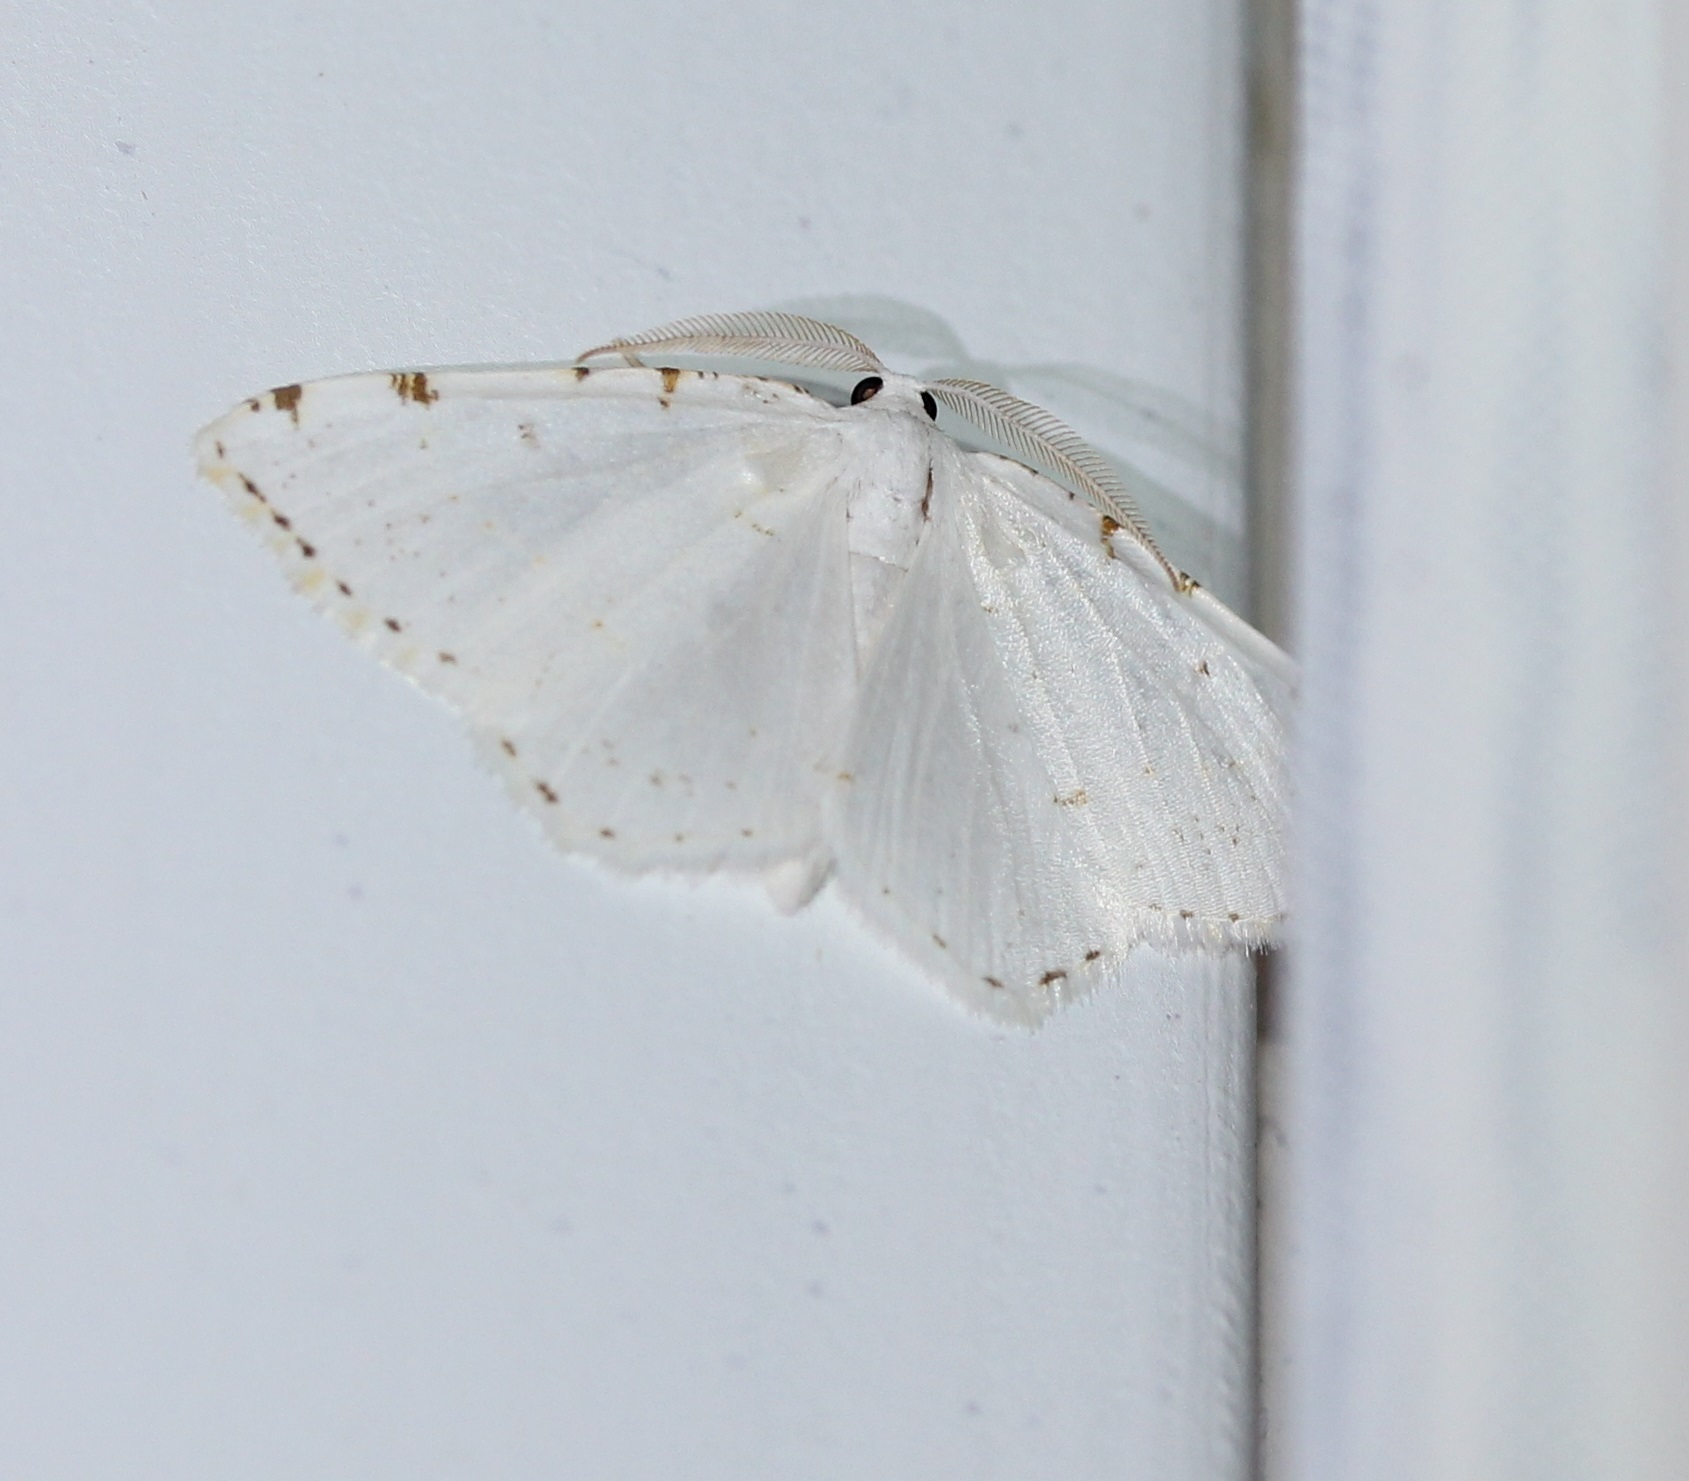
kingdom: Animalia
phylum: Arthropoda
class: Insecta
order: Lepidoptera
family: Geometridae
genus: Macaria
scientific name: Macaria pustularia
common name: Lesser maple spanworm moth
